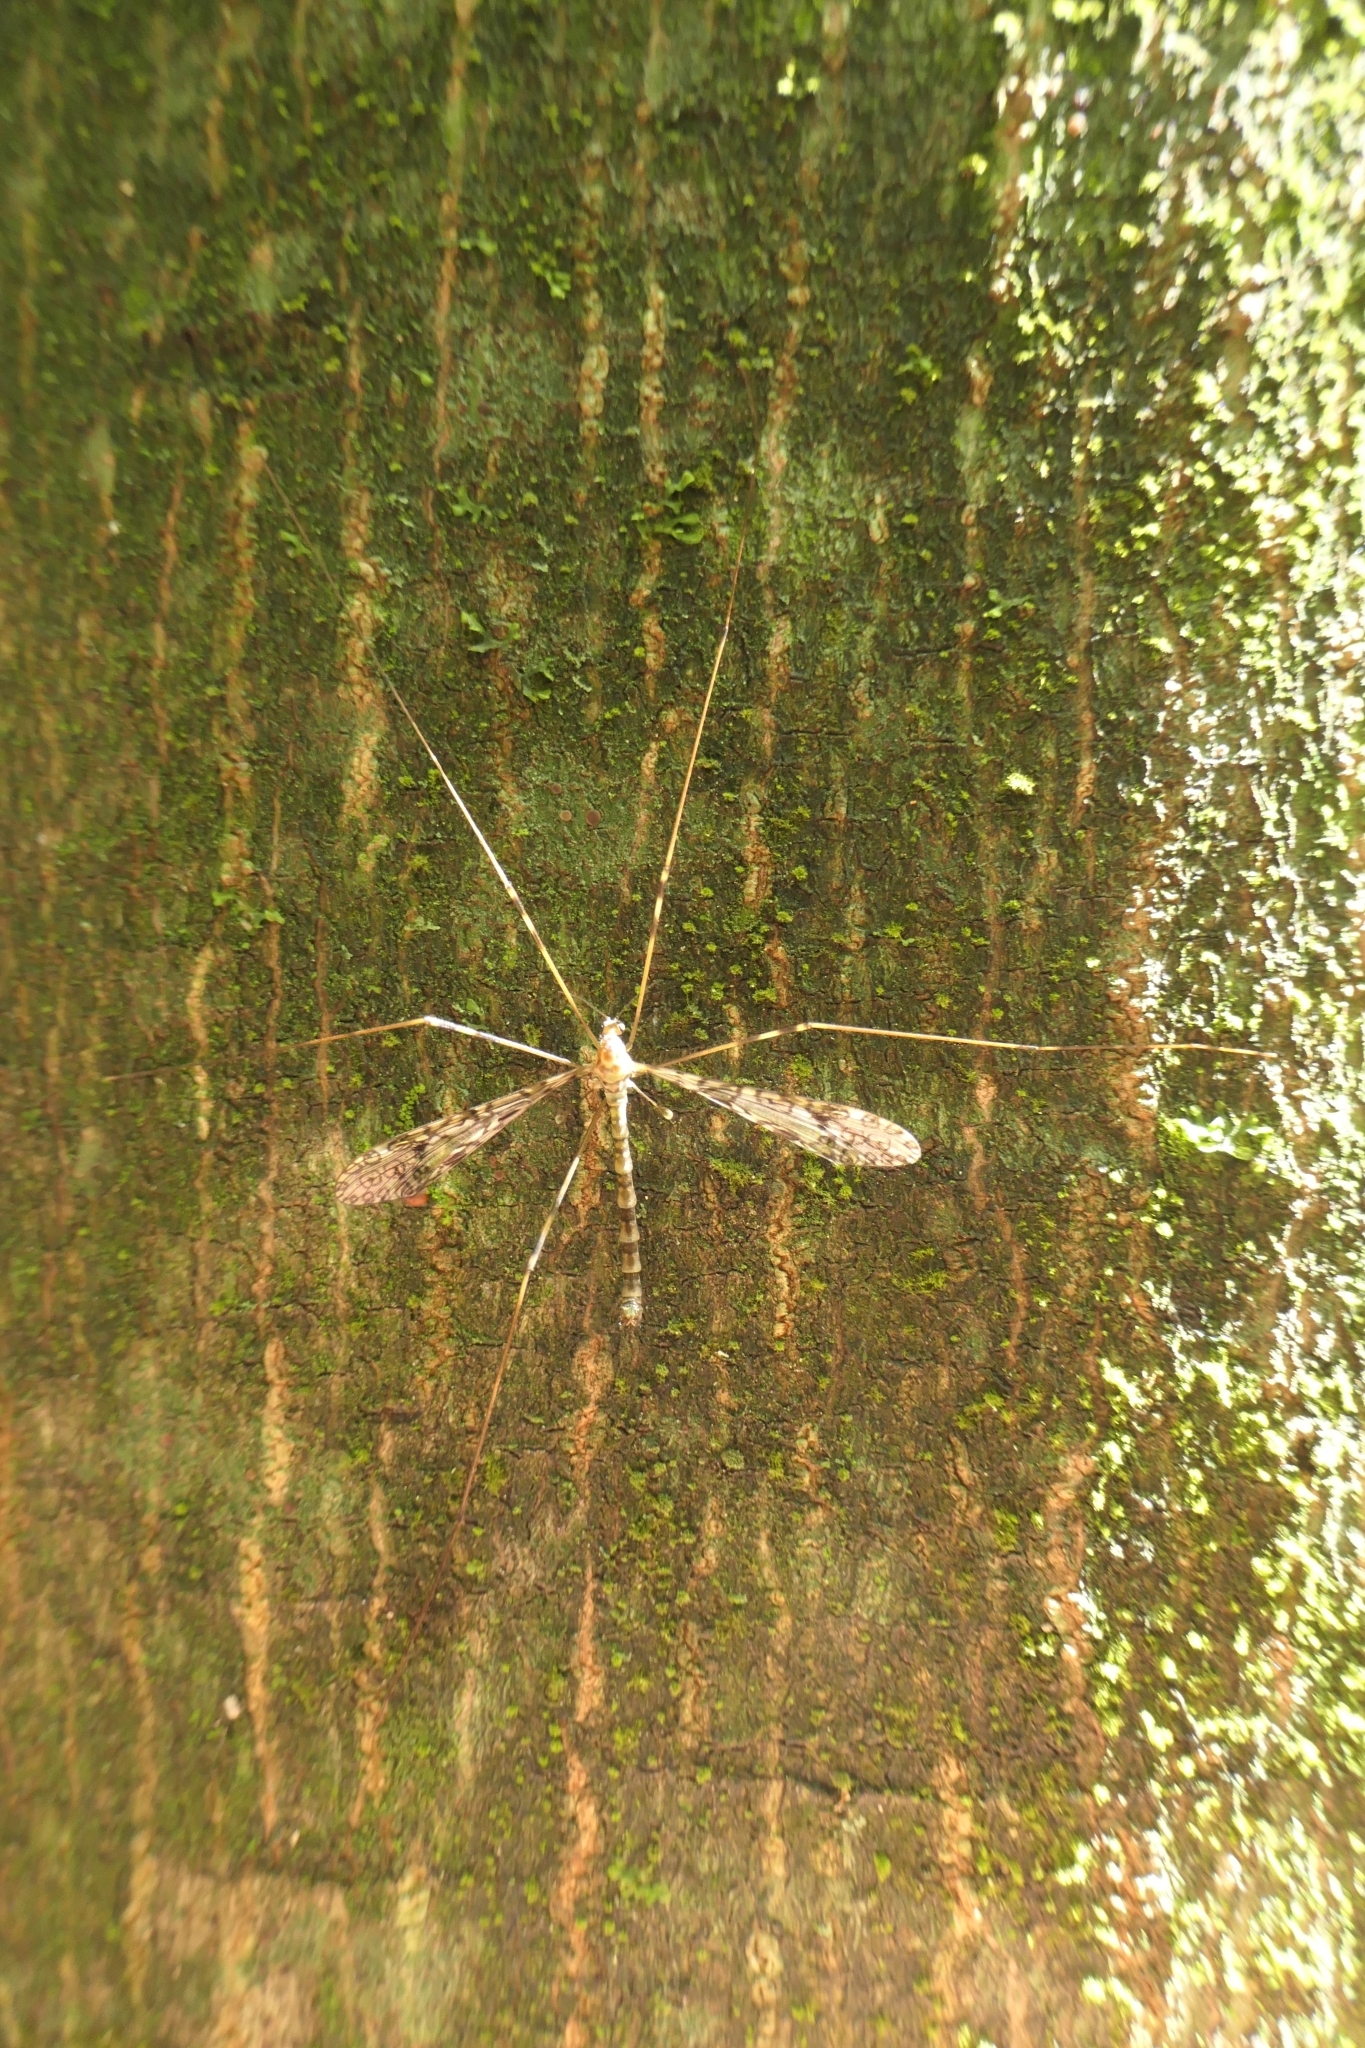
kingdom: Animalia
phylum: Arthropoda
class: Insecta
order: Diptera
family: Limoniidae
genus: Austrolimnophila
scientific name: Austrolimnophila argus
